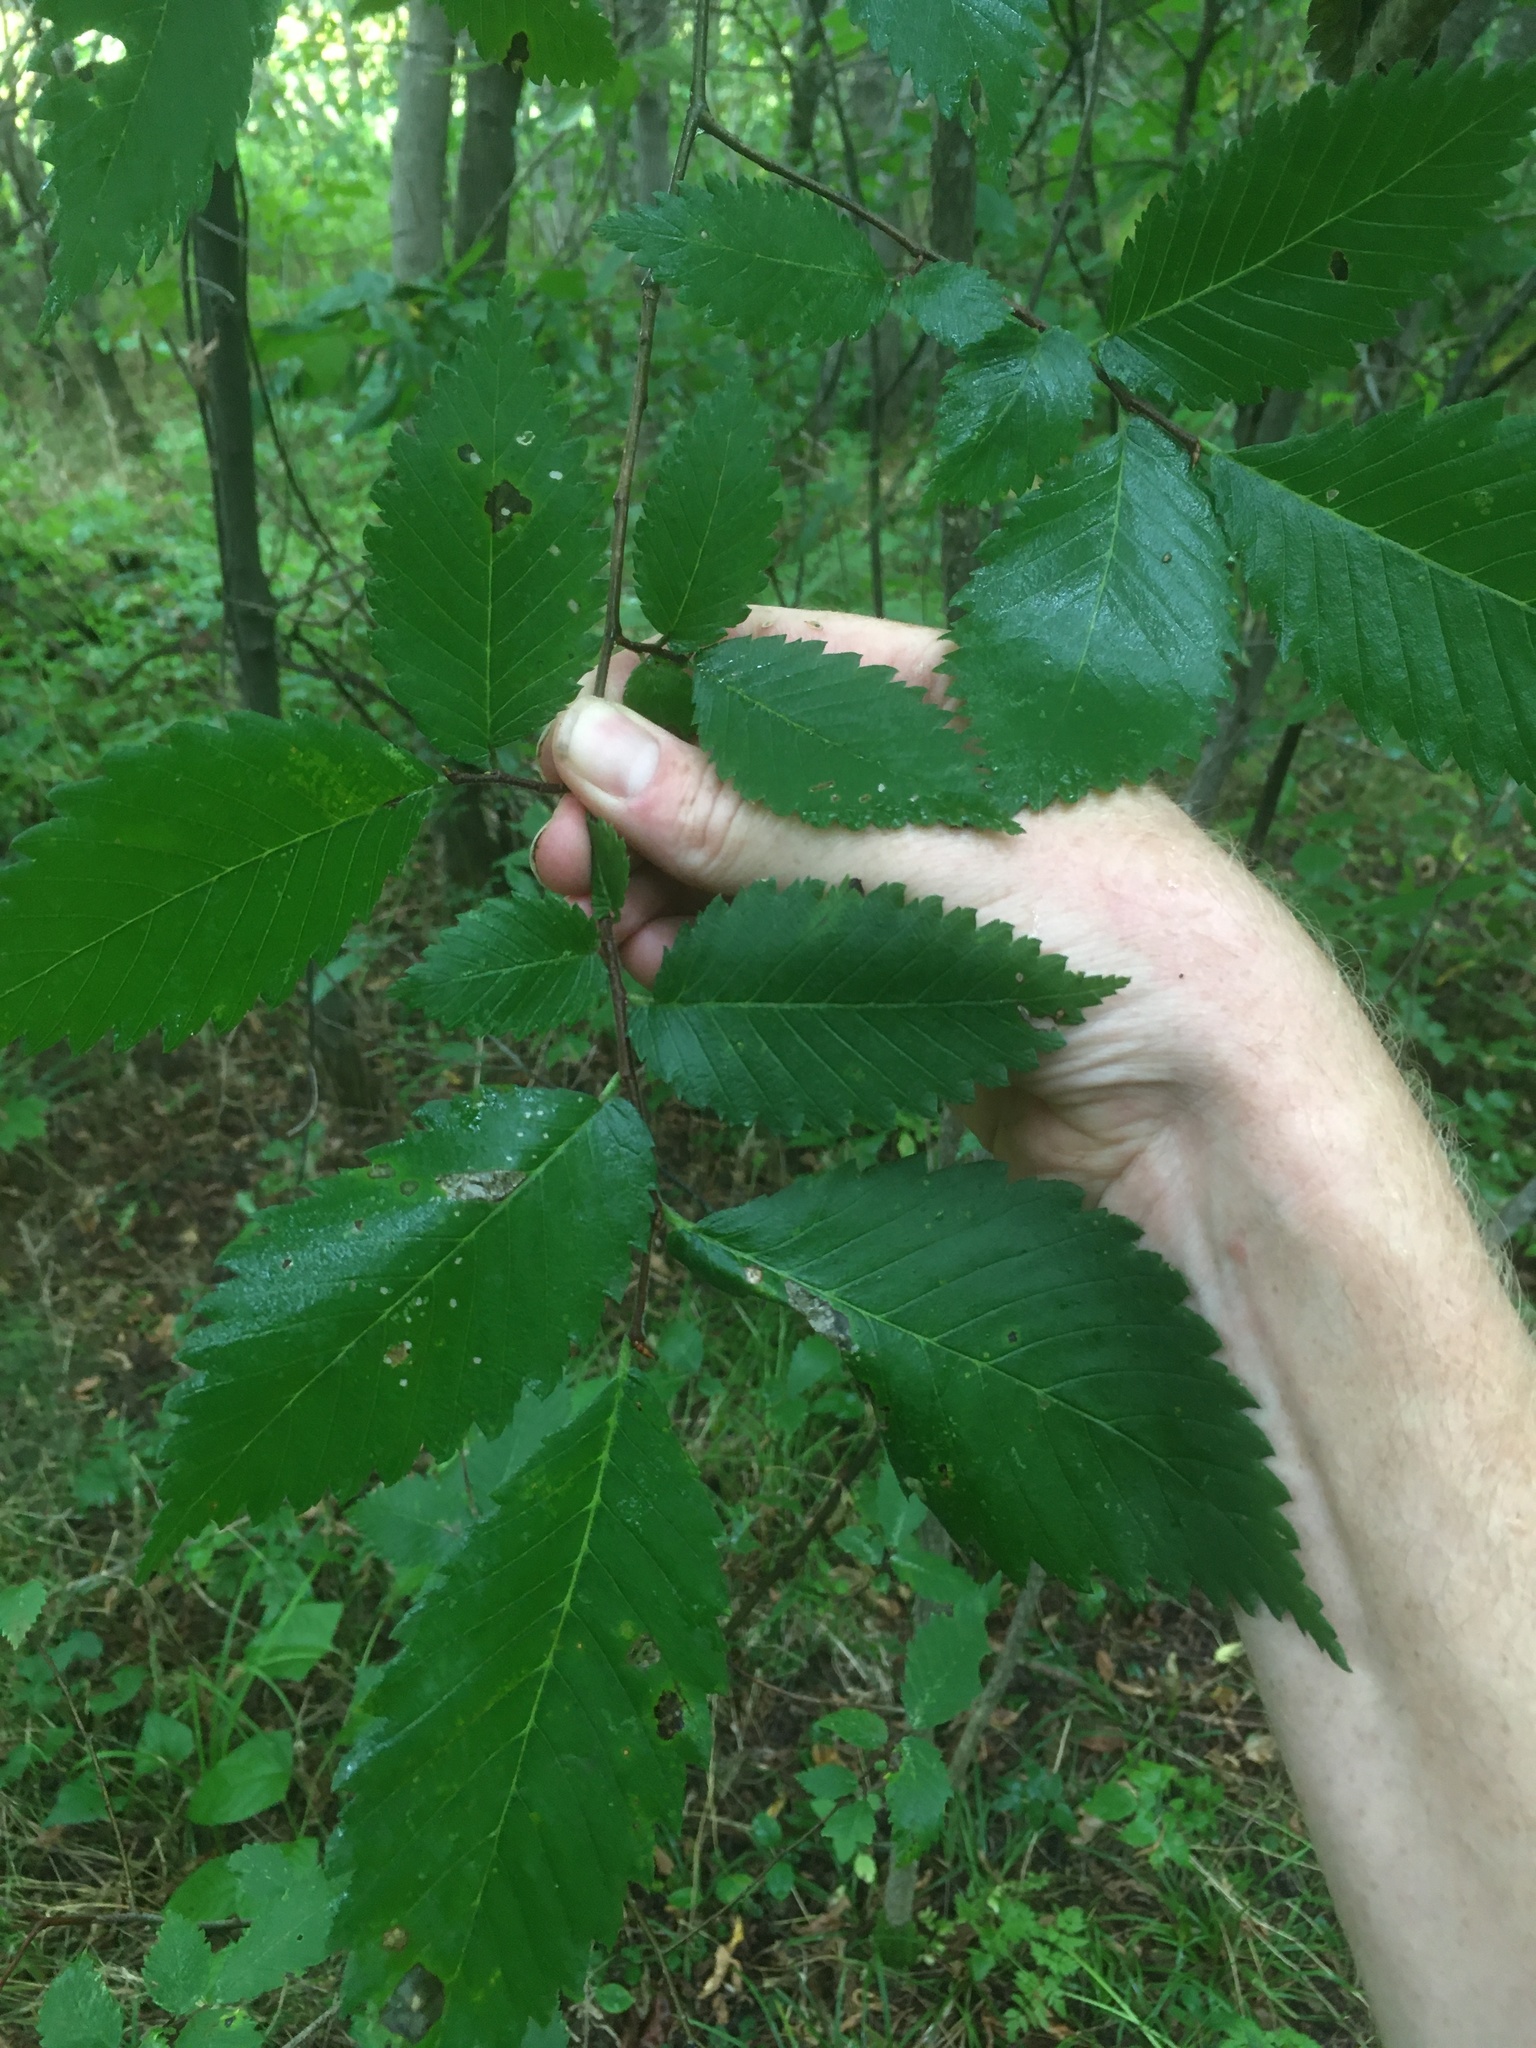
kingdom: Plantae
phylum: Tracheophyta
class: Magnoliopsida
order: Rosales
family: Ulmaceae
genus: Ulmus
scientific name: Ulmus americana
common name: American elm
